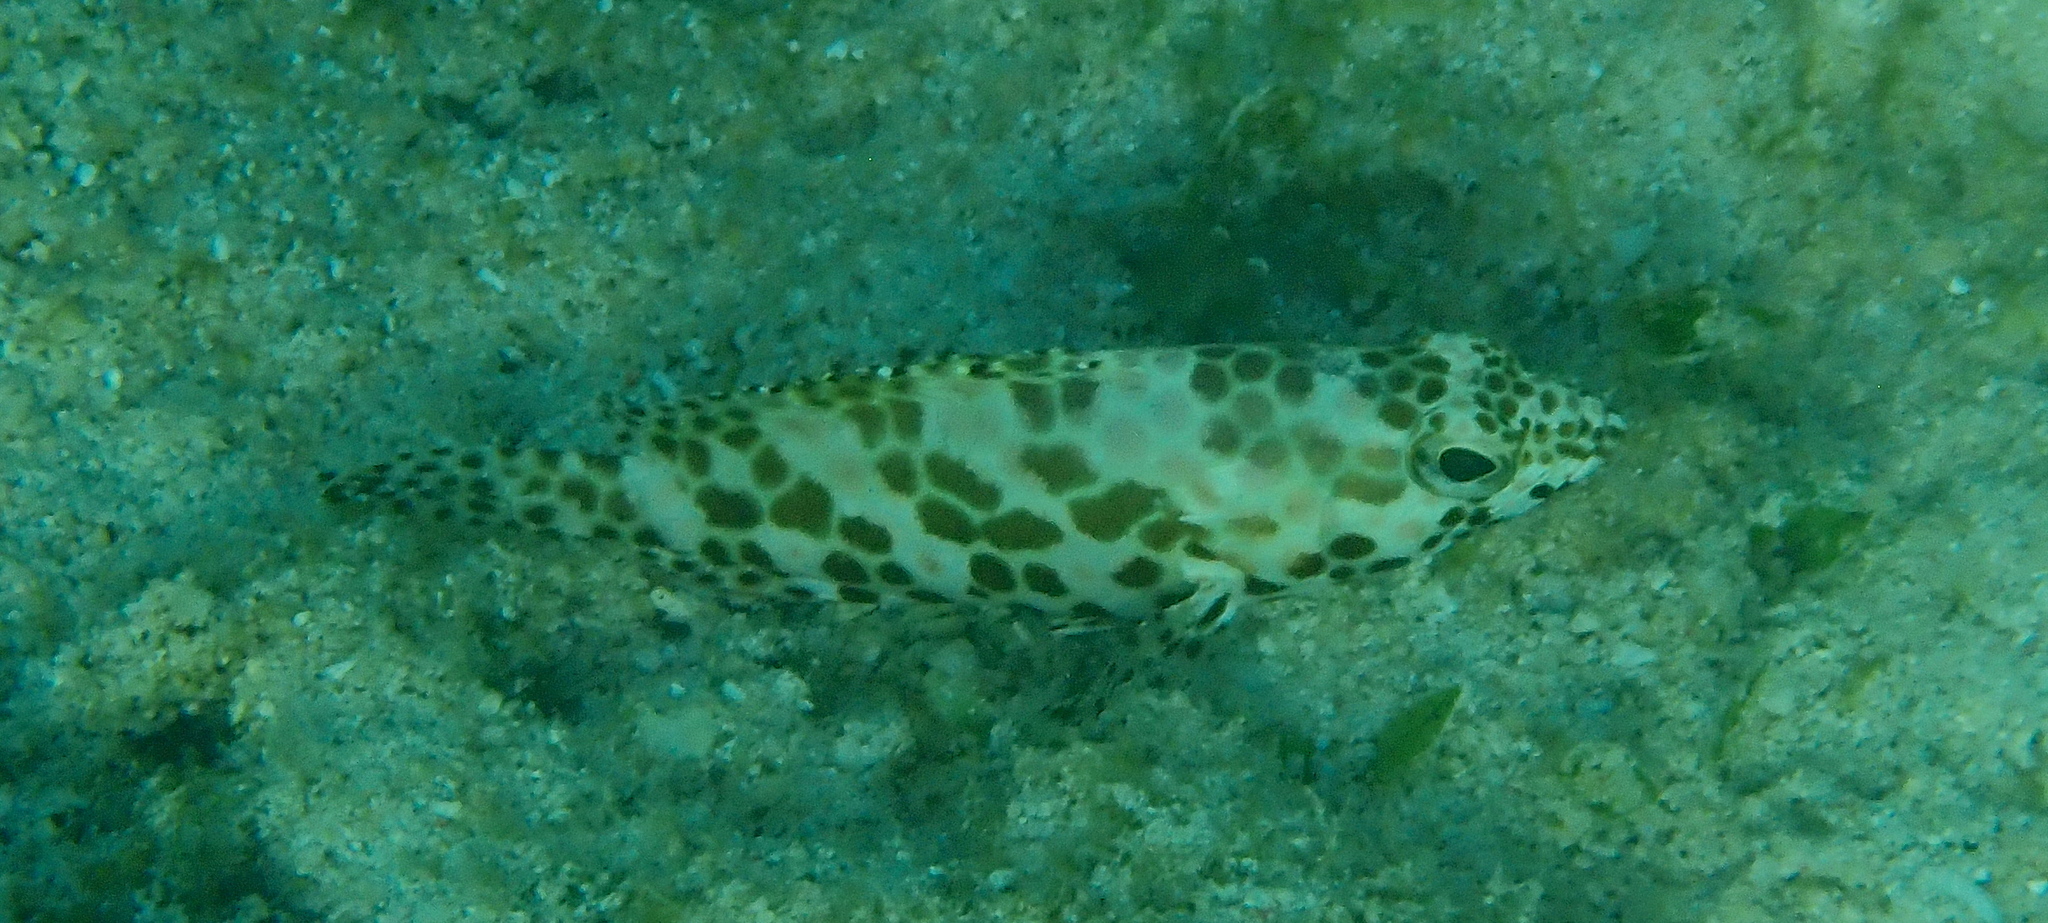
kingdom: Animalia
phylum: Chordata
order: Perciformes
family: Serranidae
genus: Epinephelus
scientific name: Epinephelus merra
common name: Honeycomb grouper
